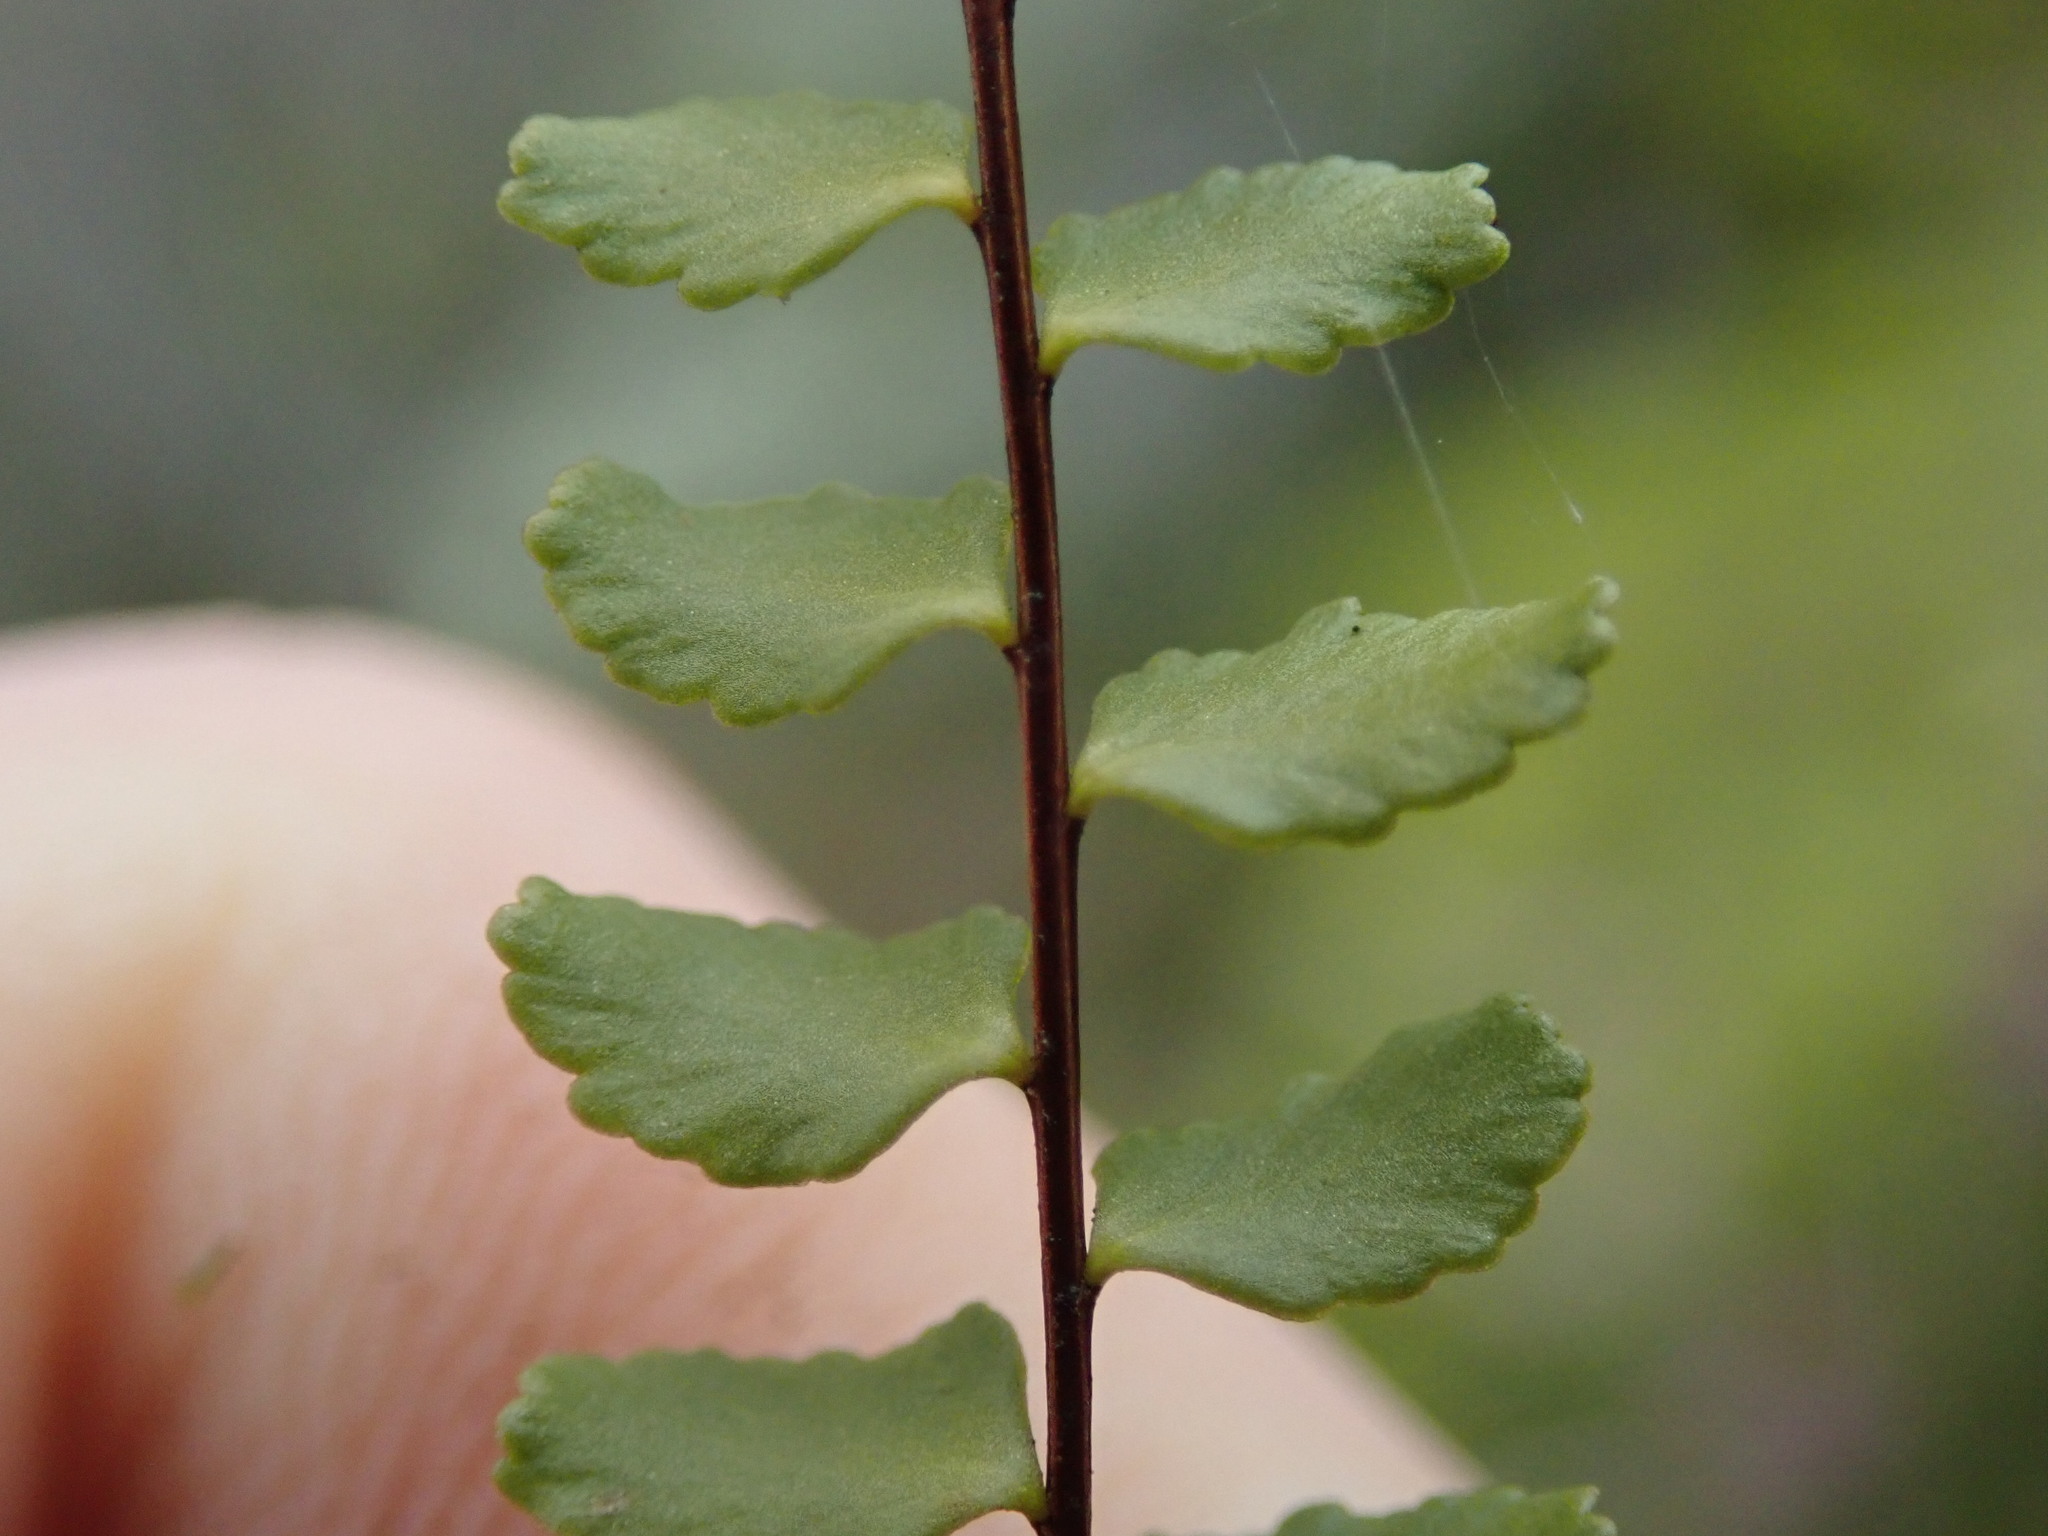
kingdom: Plantae
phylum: Tracheophyta
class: Polypodiopsida
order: Polypodiales
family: Aspleniaceae
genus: Asplenium
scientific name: Asplenium trichomanes
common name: Maidenhair spleenwort
